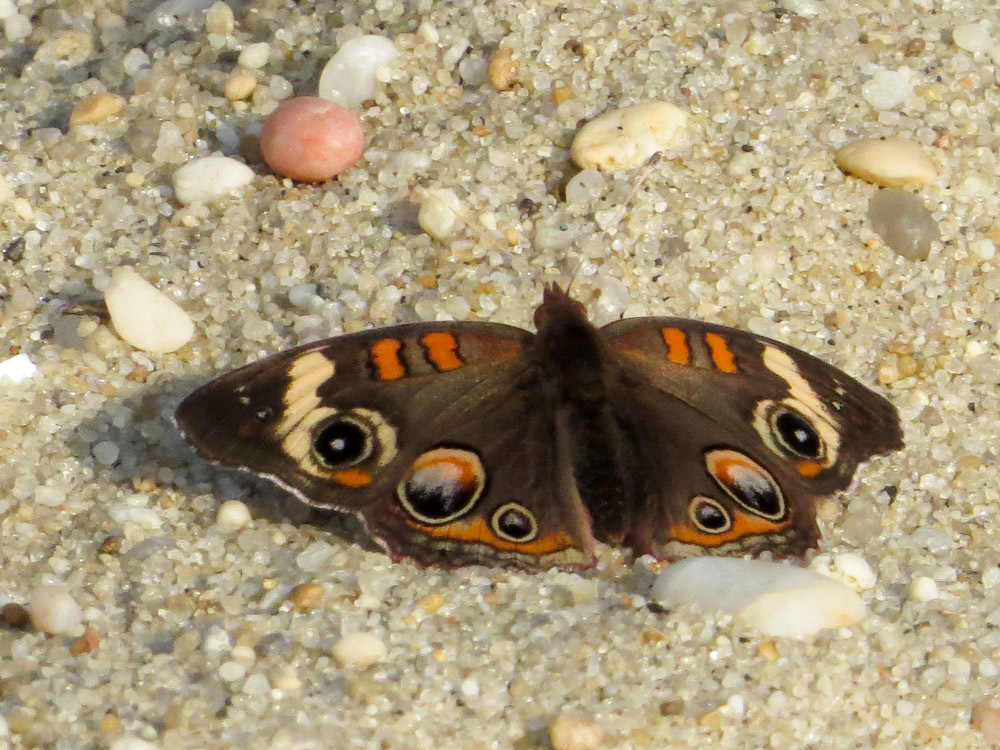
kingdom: Animalia
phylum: Arthropoda
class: Insecta
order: Lepidoptera
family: Nymphalidae
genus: Junonia
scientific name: Junonia coenia
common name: Common buckeye
